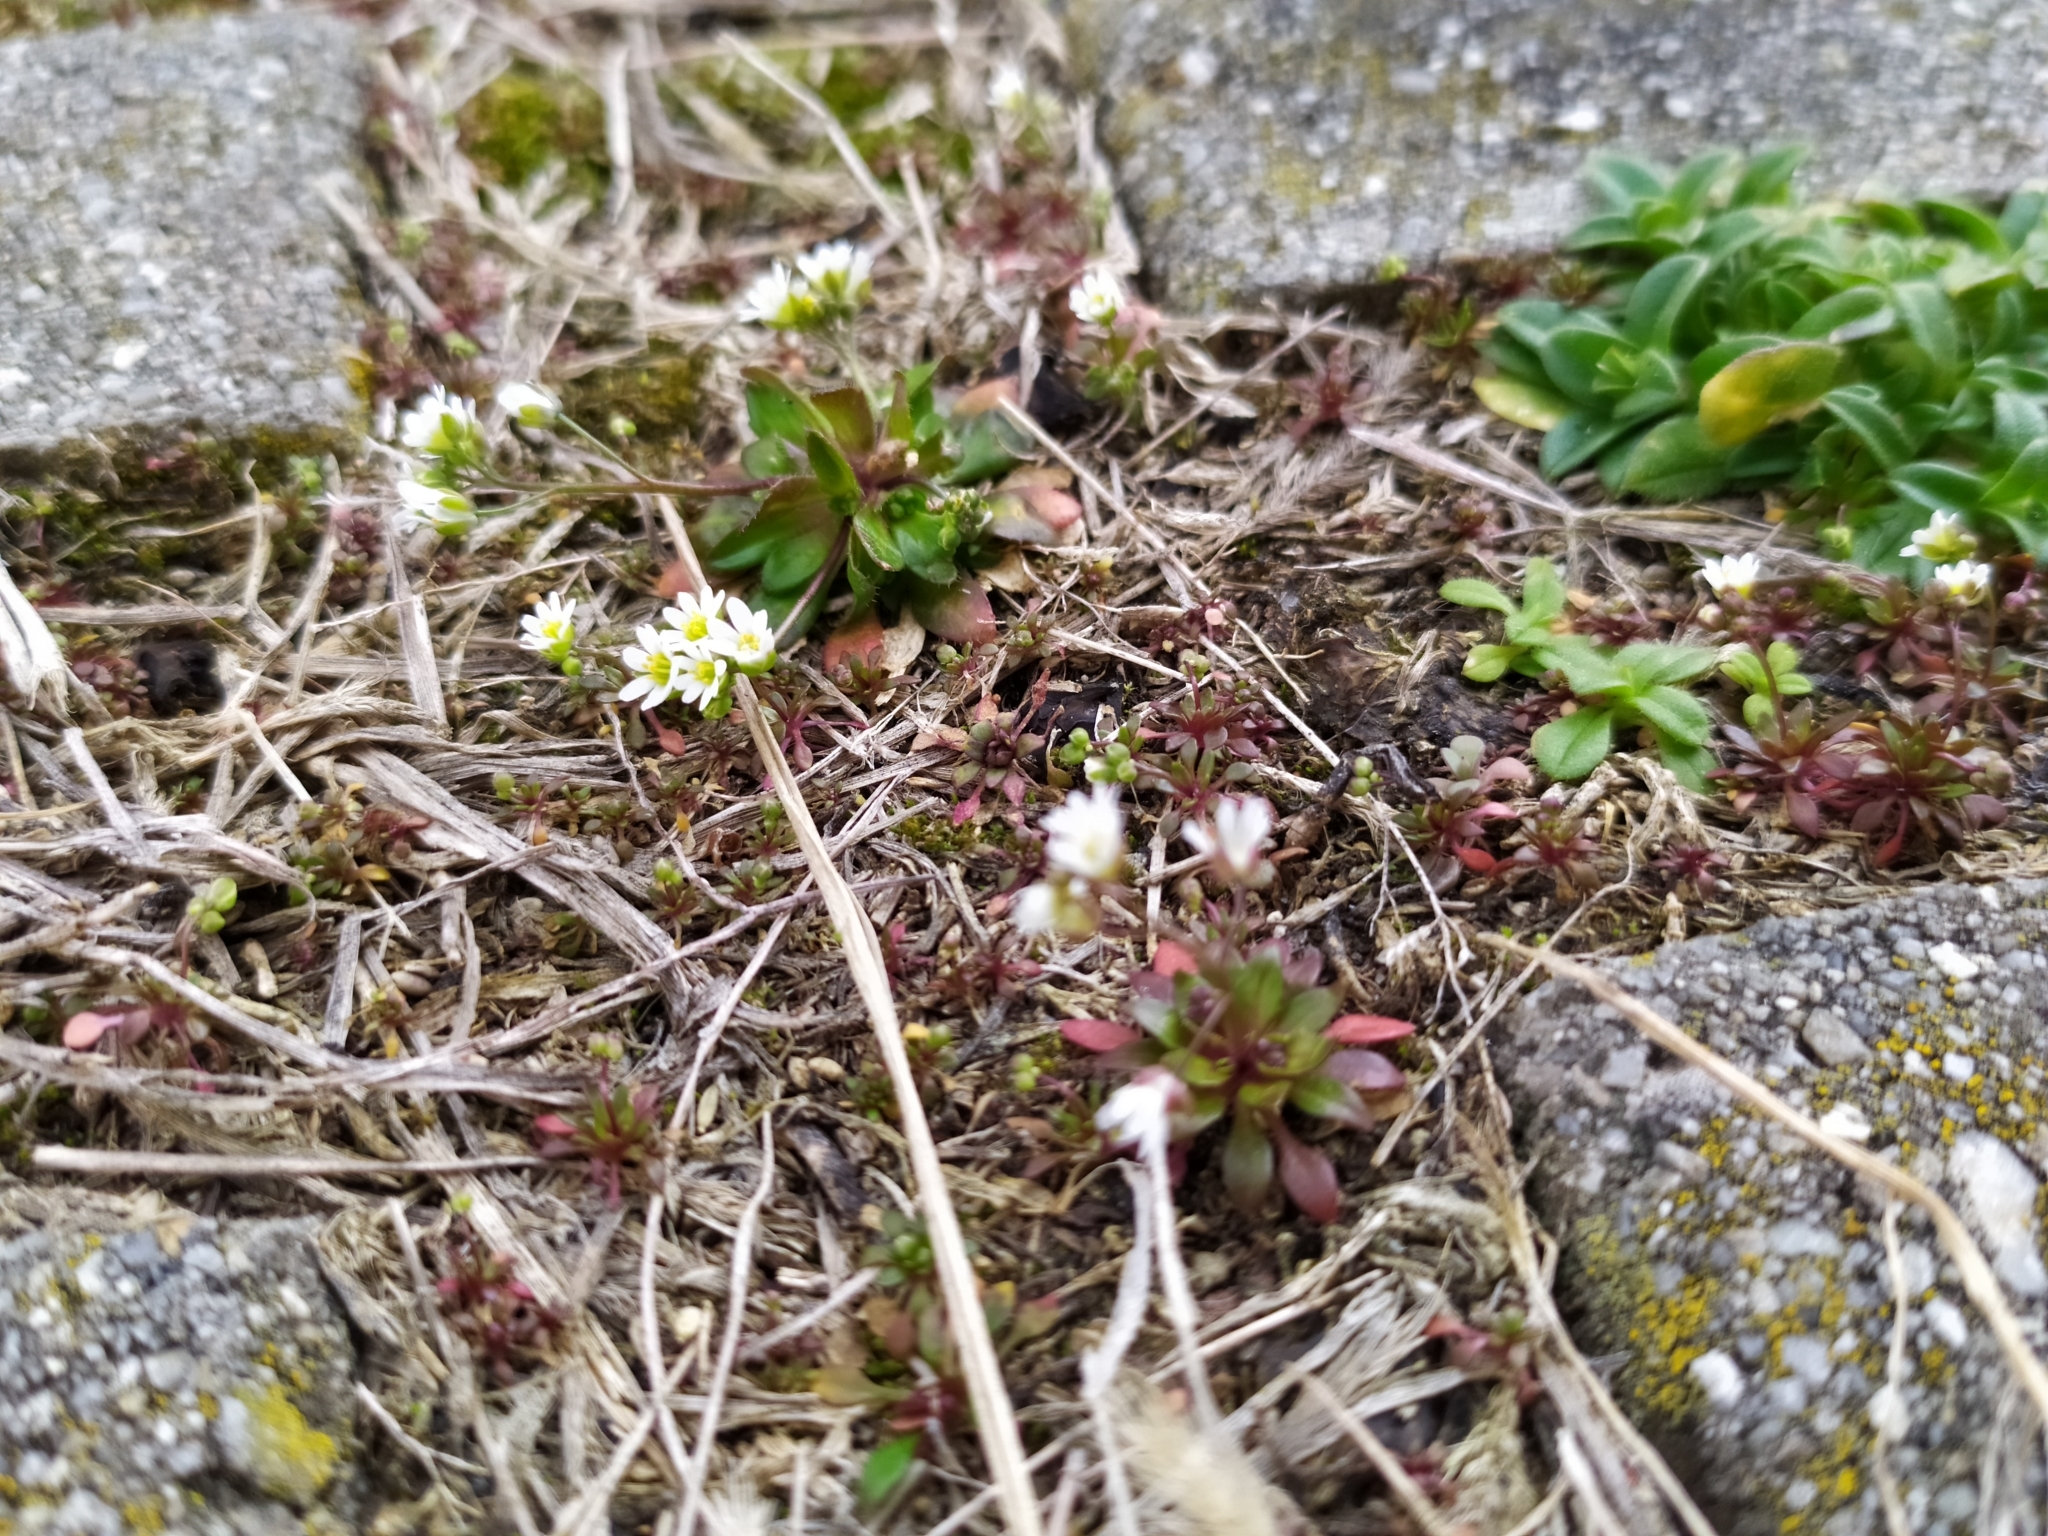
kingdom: Plantae
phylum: Tracheophyta
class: Magnoliopsida
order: Brassicales
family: Brassicaceae
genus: Draba
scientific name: Draba verna
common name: Spring draba
